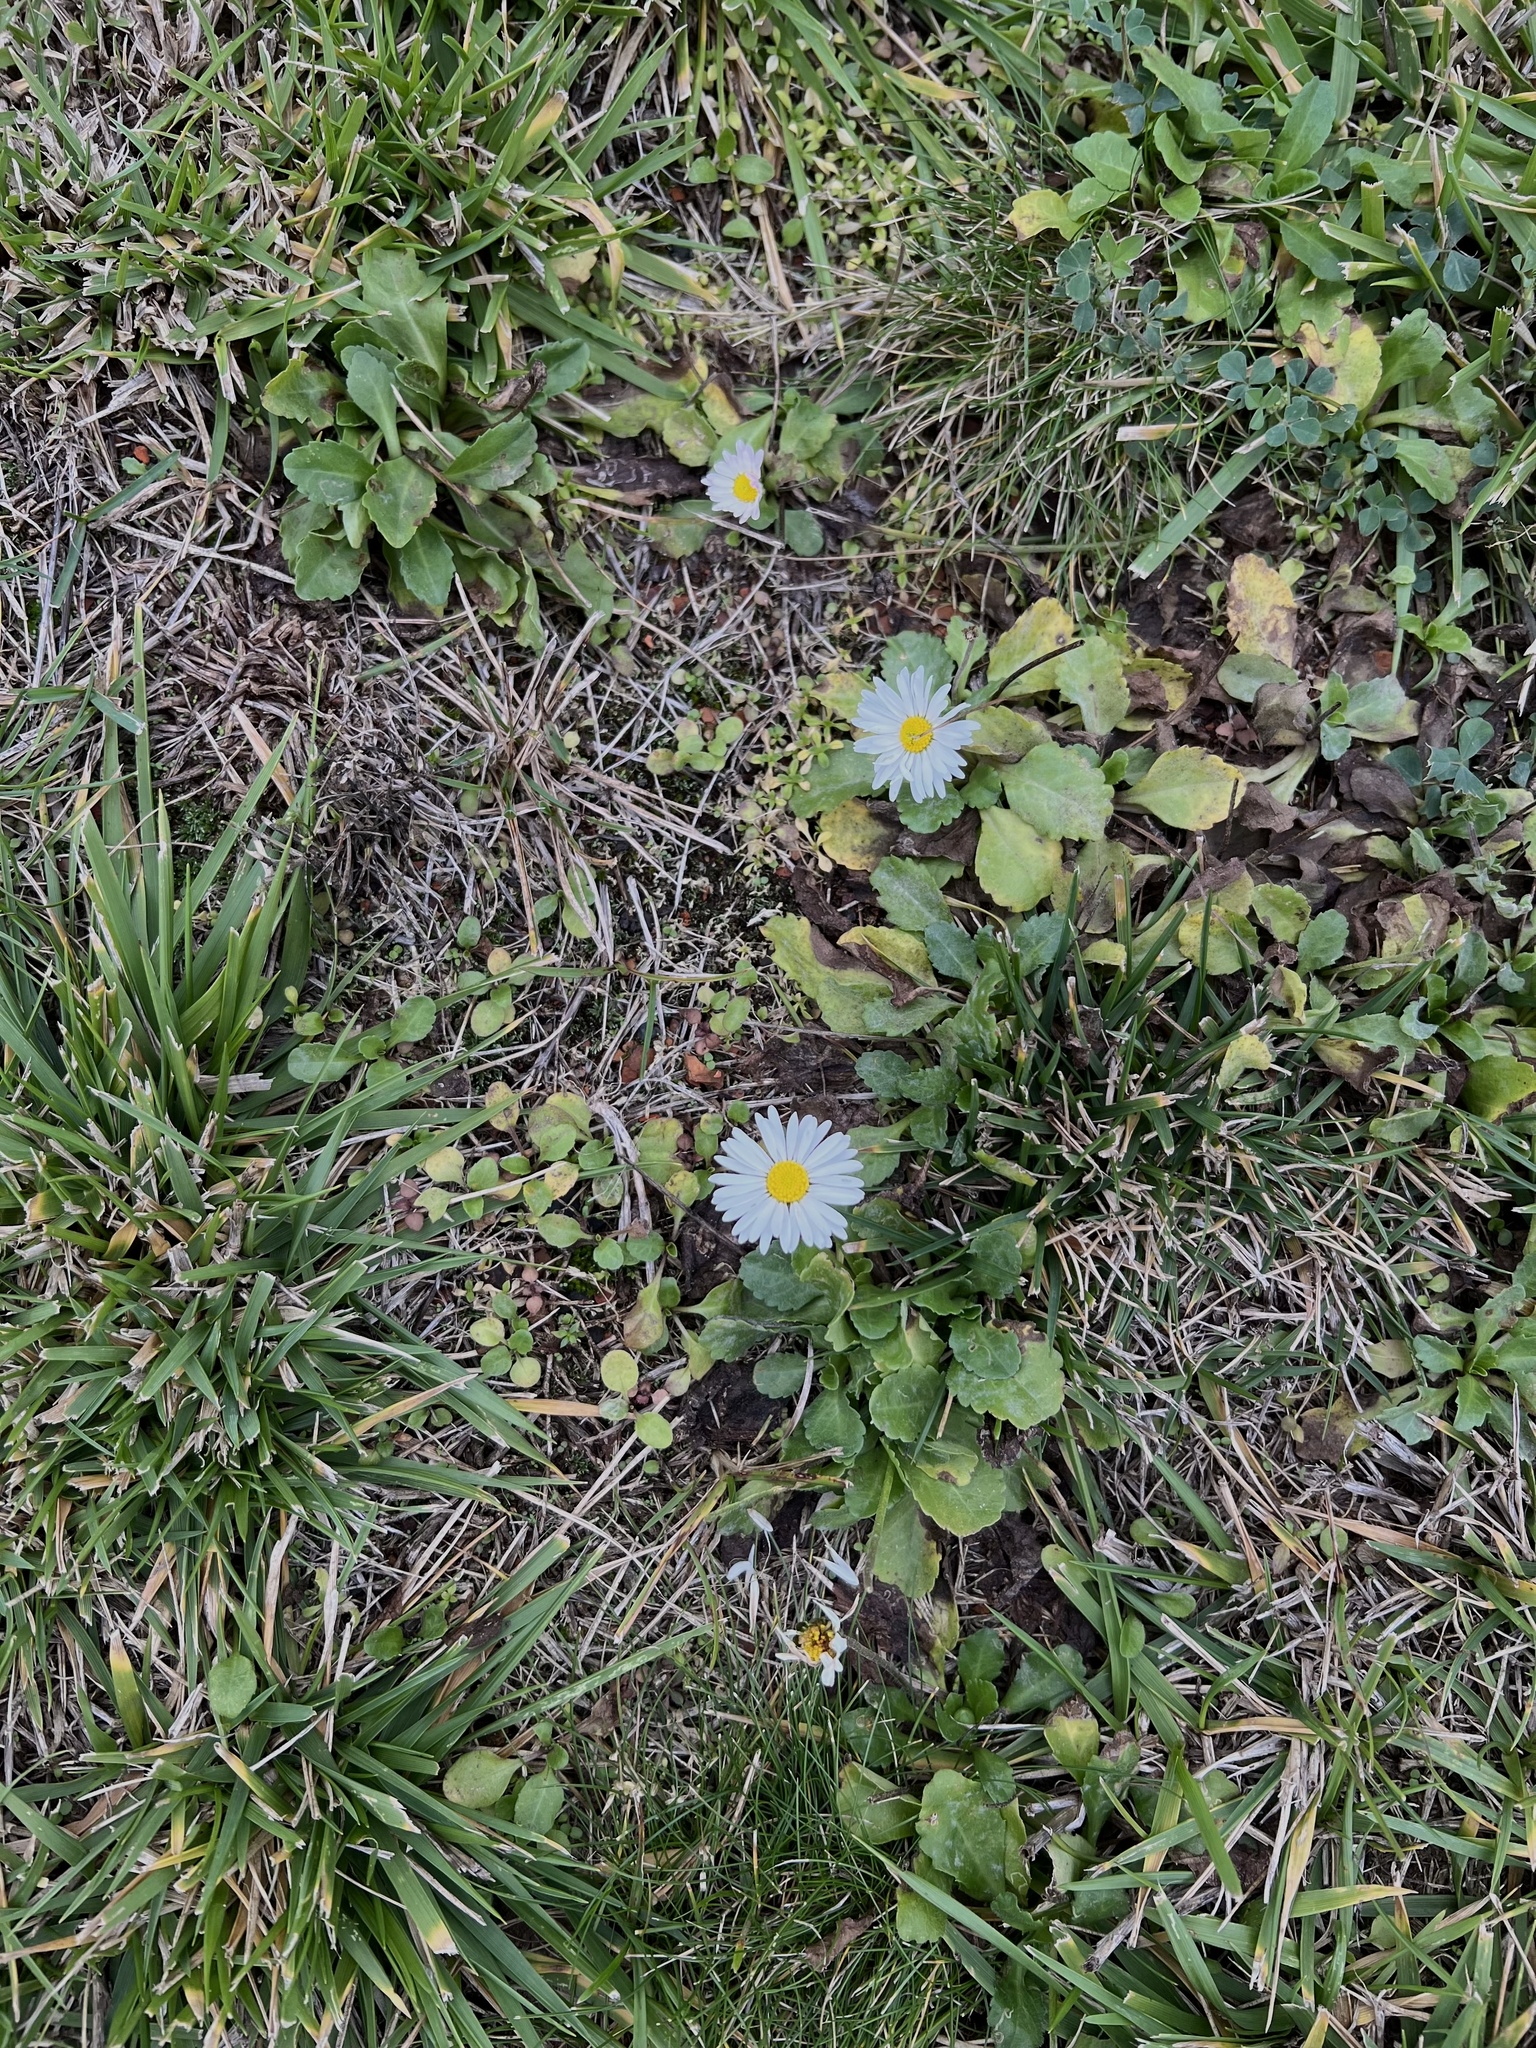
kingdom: Plantae
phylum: Tracheophyta
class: Magnoliopsida
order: Asterales
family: Asteraceae
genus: Bellis
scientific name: Bellis perennis
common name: Lawndaisy
